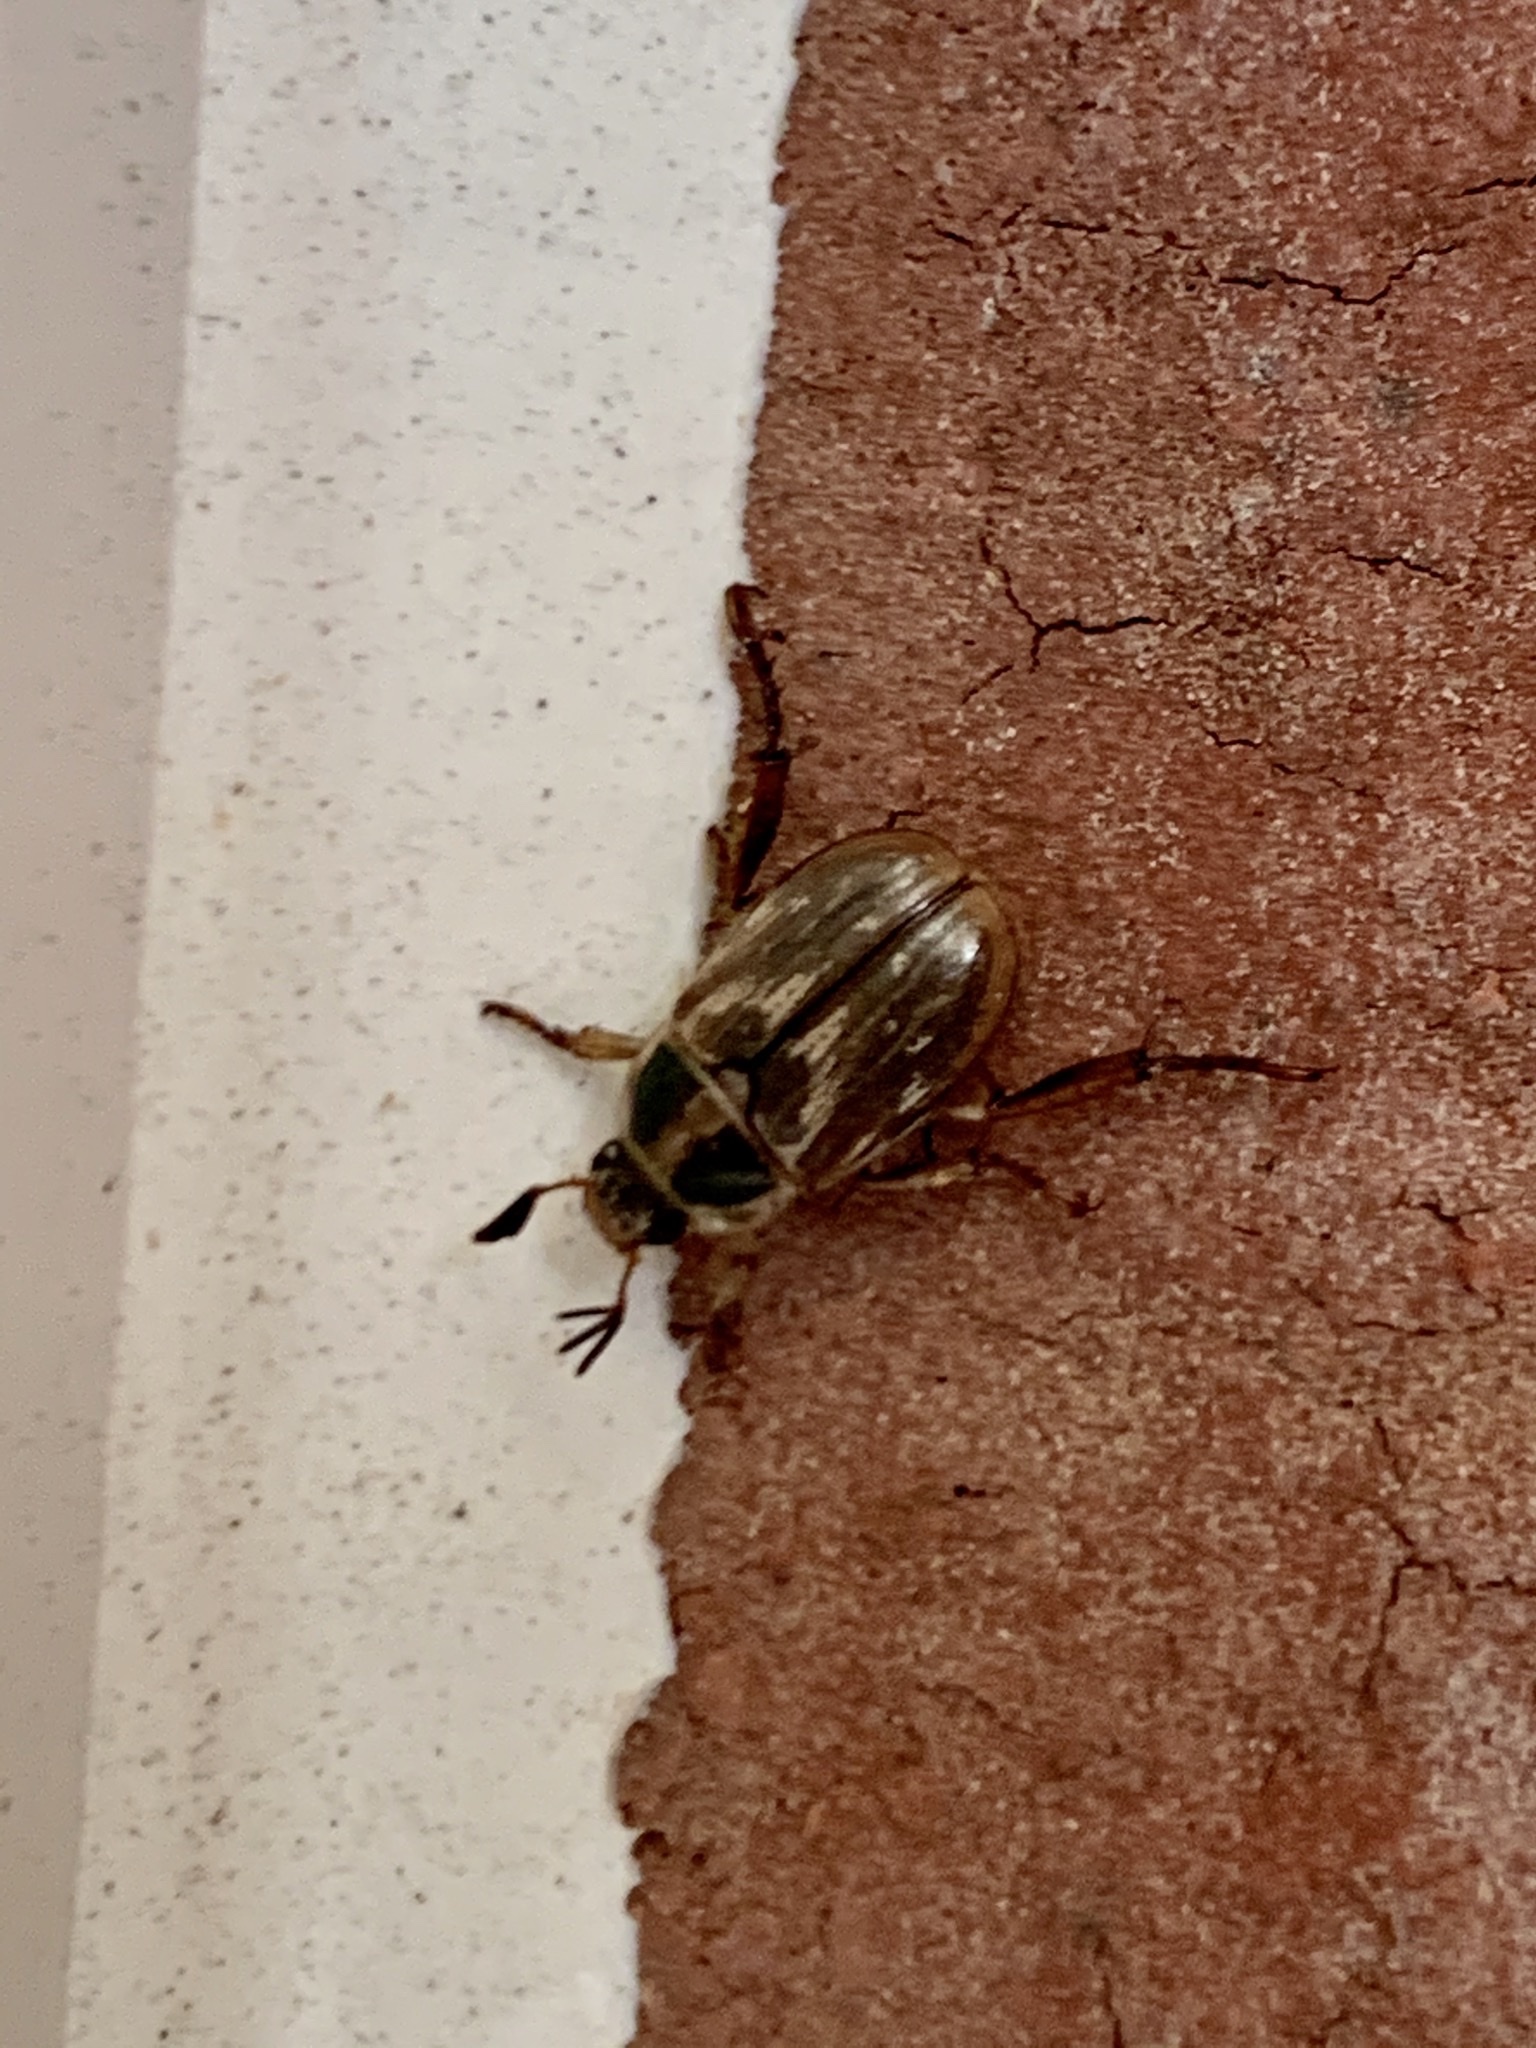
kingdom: Animalia
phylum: Arthropoda
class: Insecta
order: Coleoptera
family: Scarabaeidae
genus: Exomala
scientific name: Exomala orientalis
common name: Oriental beetle
